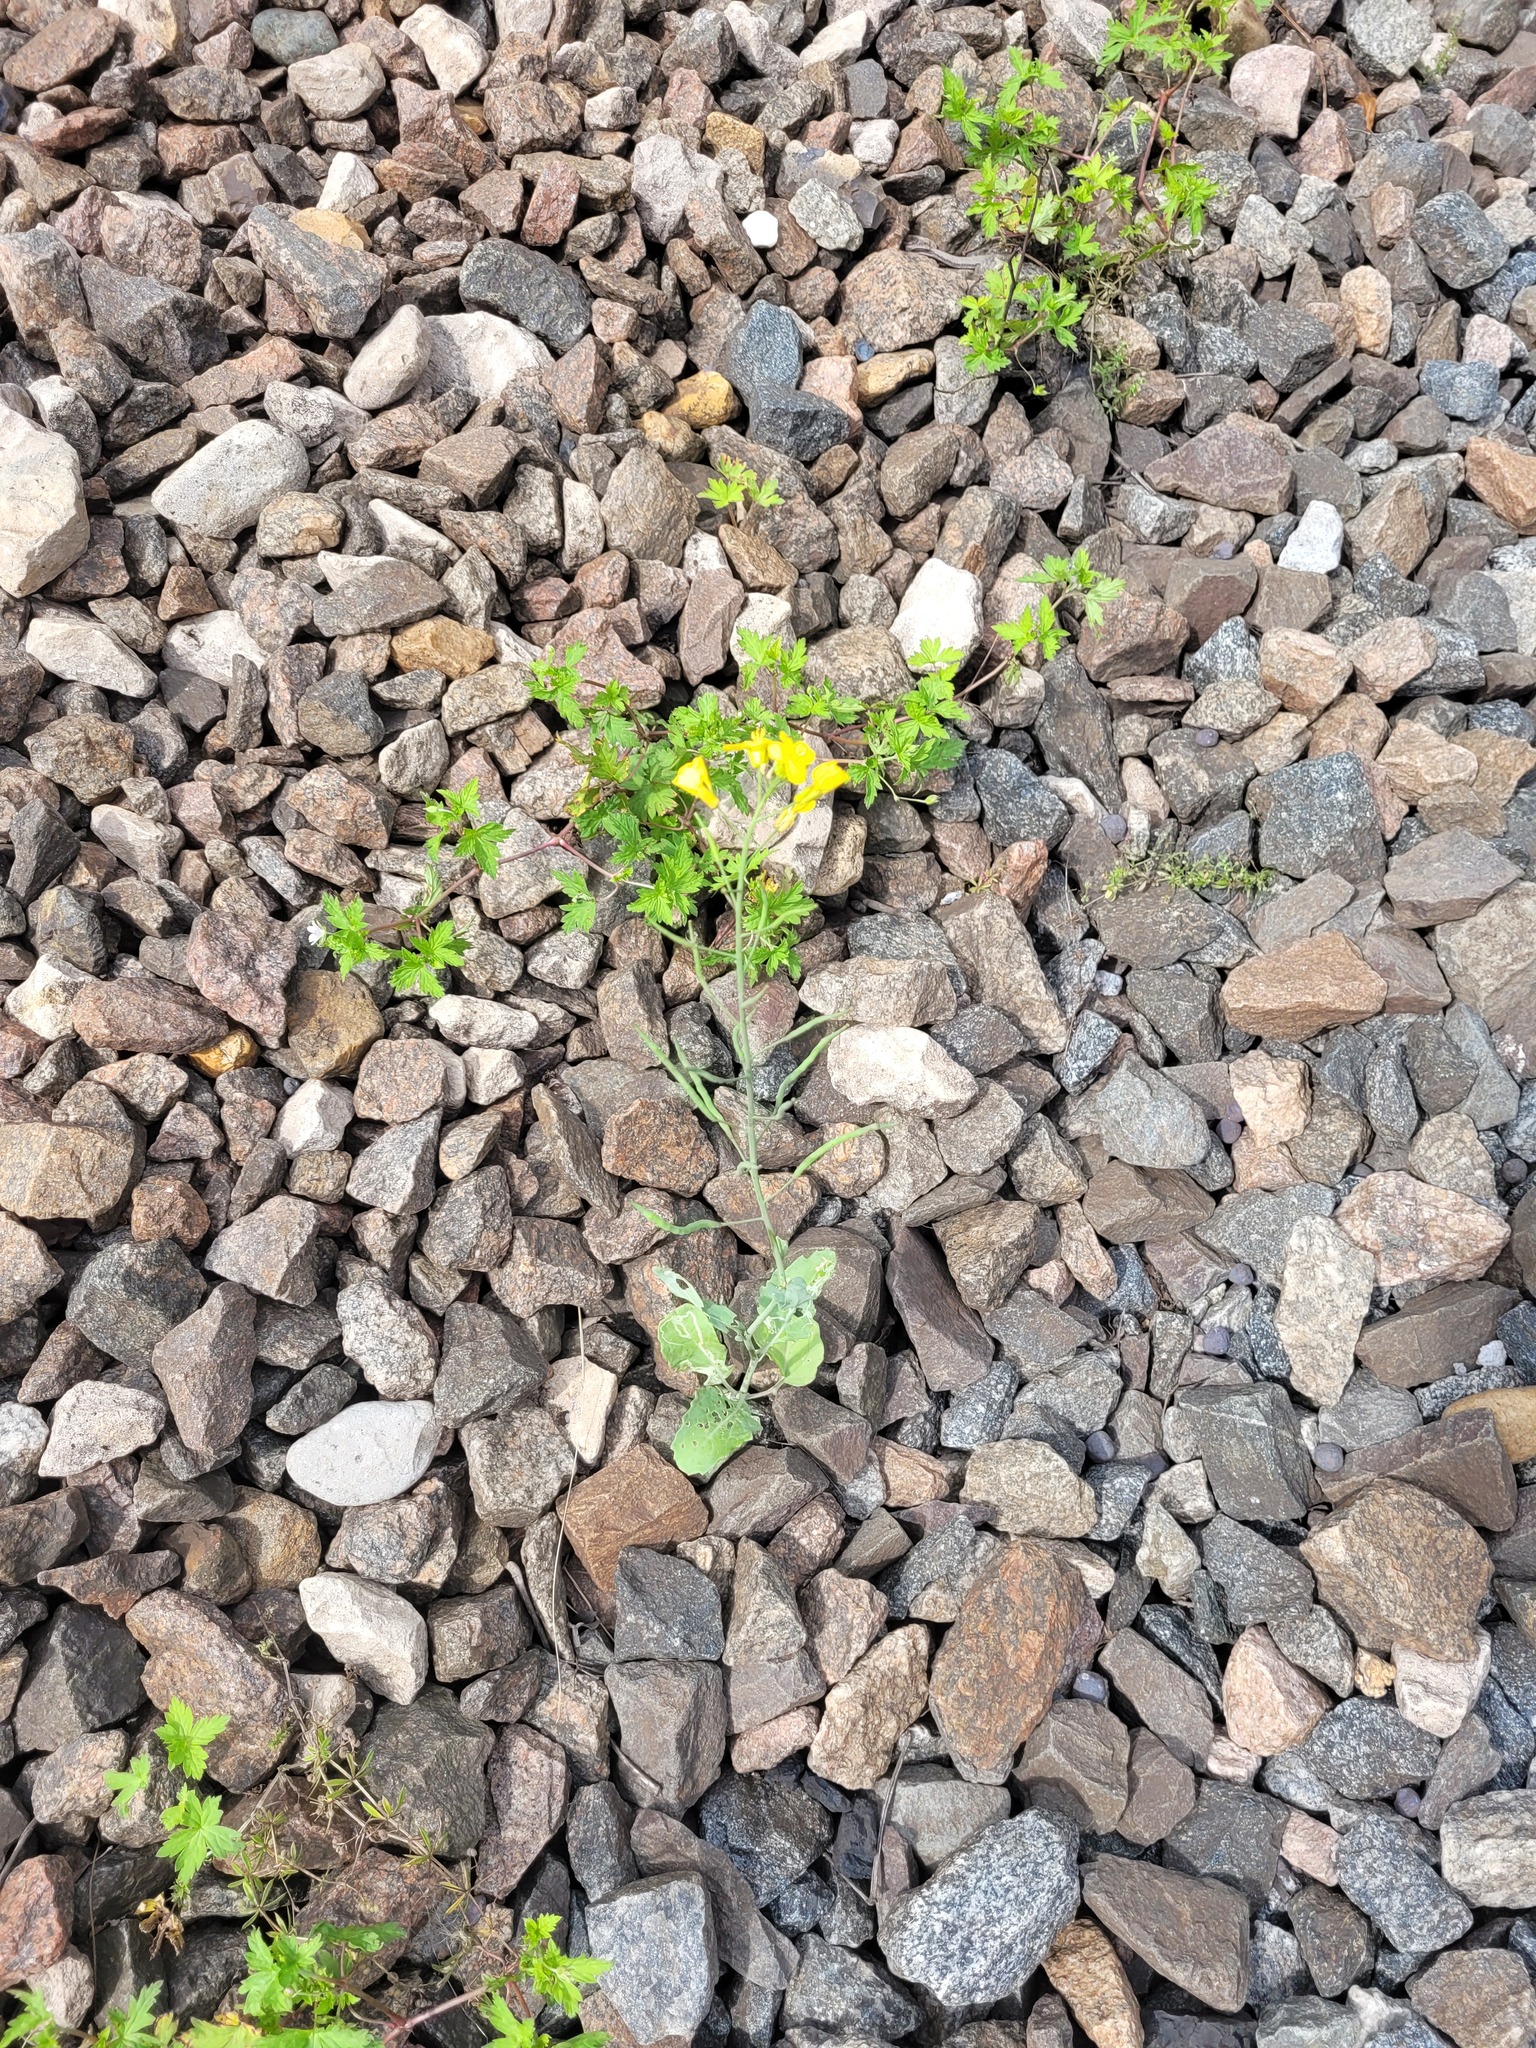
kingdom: Plantae
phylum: Tracheophyta
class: Magnoliopsida
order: Brassicales
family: Brassicaceae
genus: Brassica
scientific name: Brassica napus
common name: Rape
